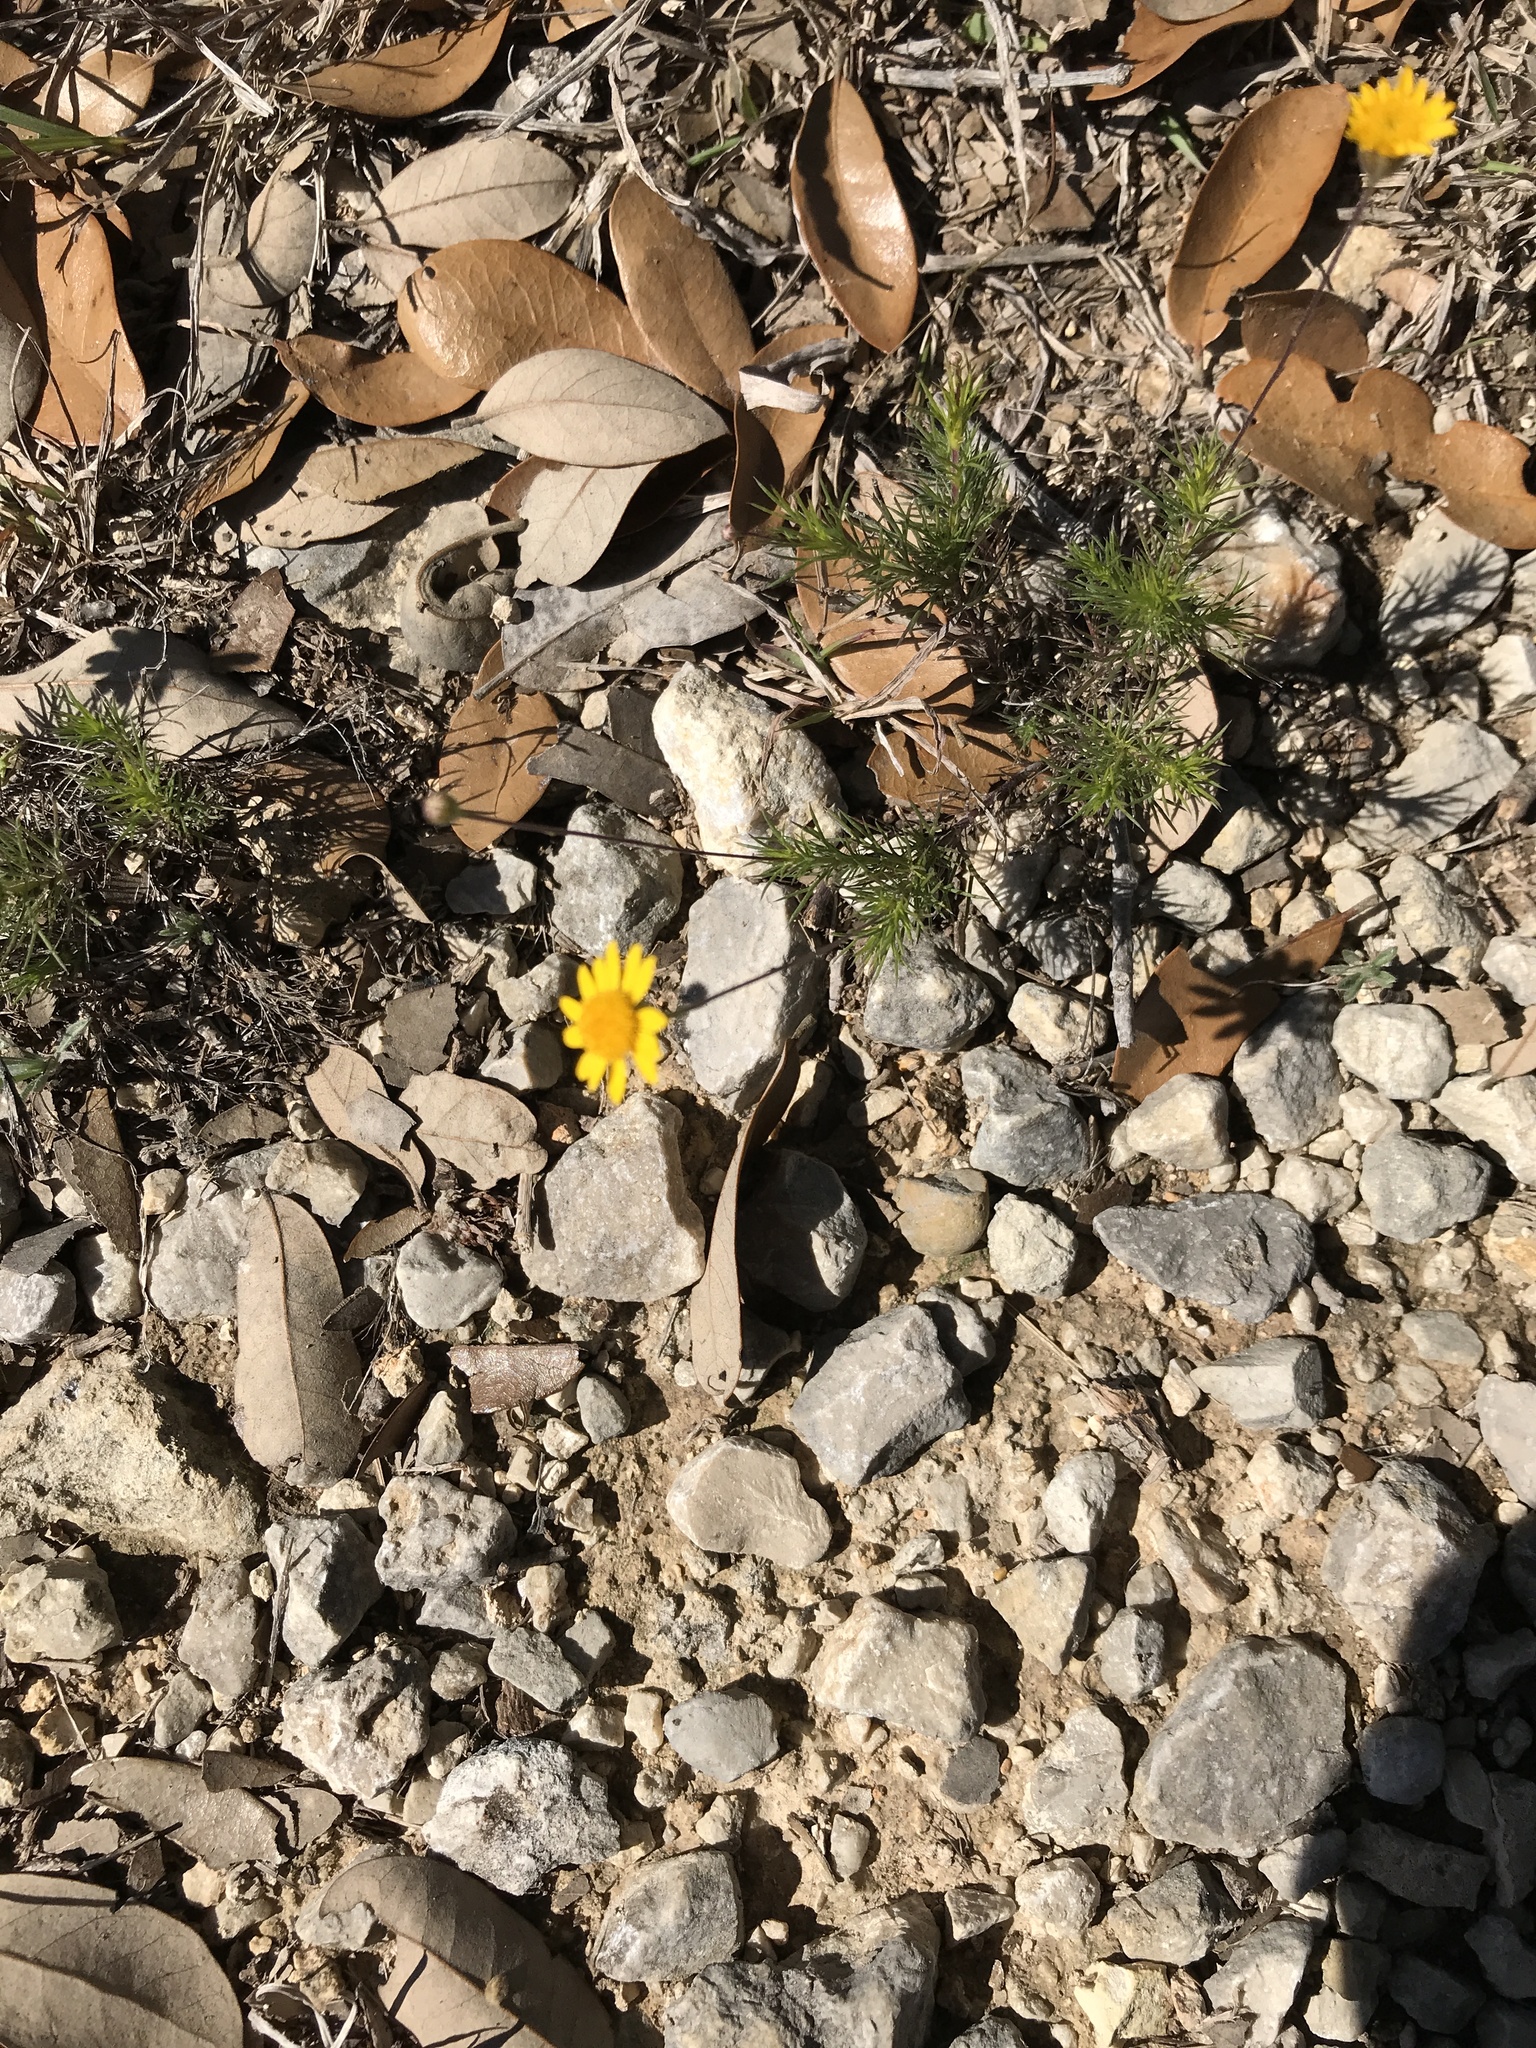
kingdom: Plantae
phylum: Tracheophyta
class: Magnoliopsida
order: Asterales
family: Asteraceae
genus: Thymophylla
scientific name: Thymophylla pentachaeta
